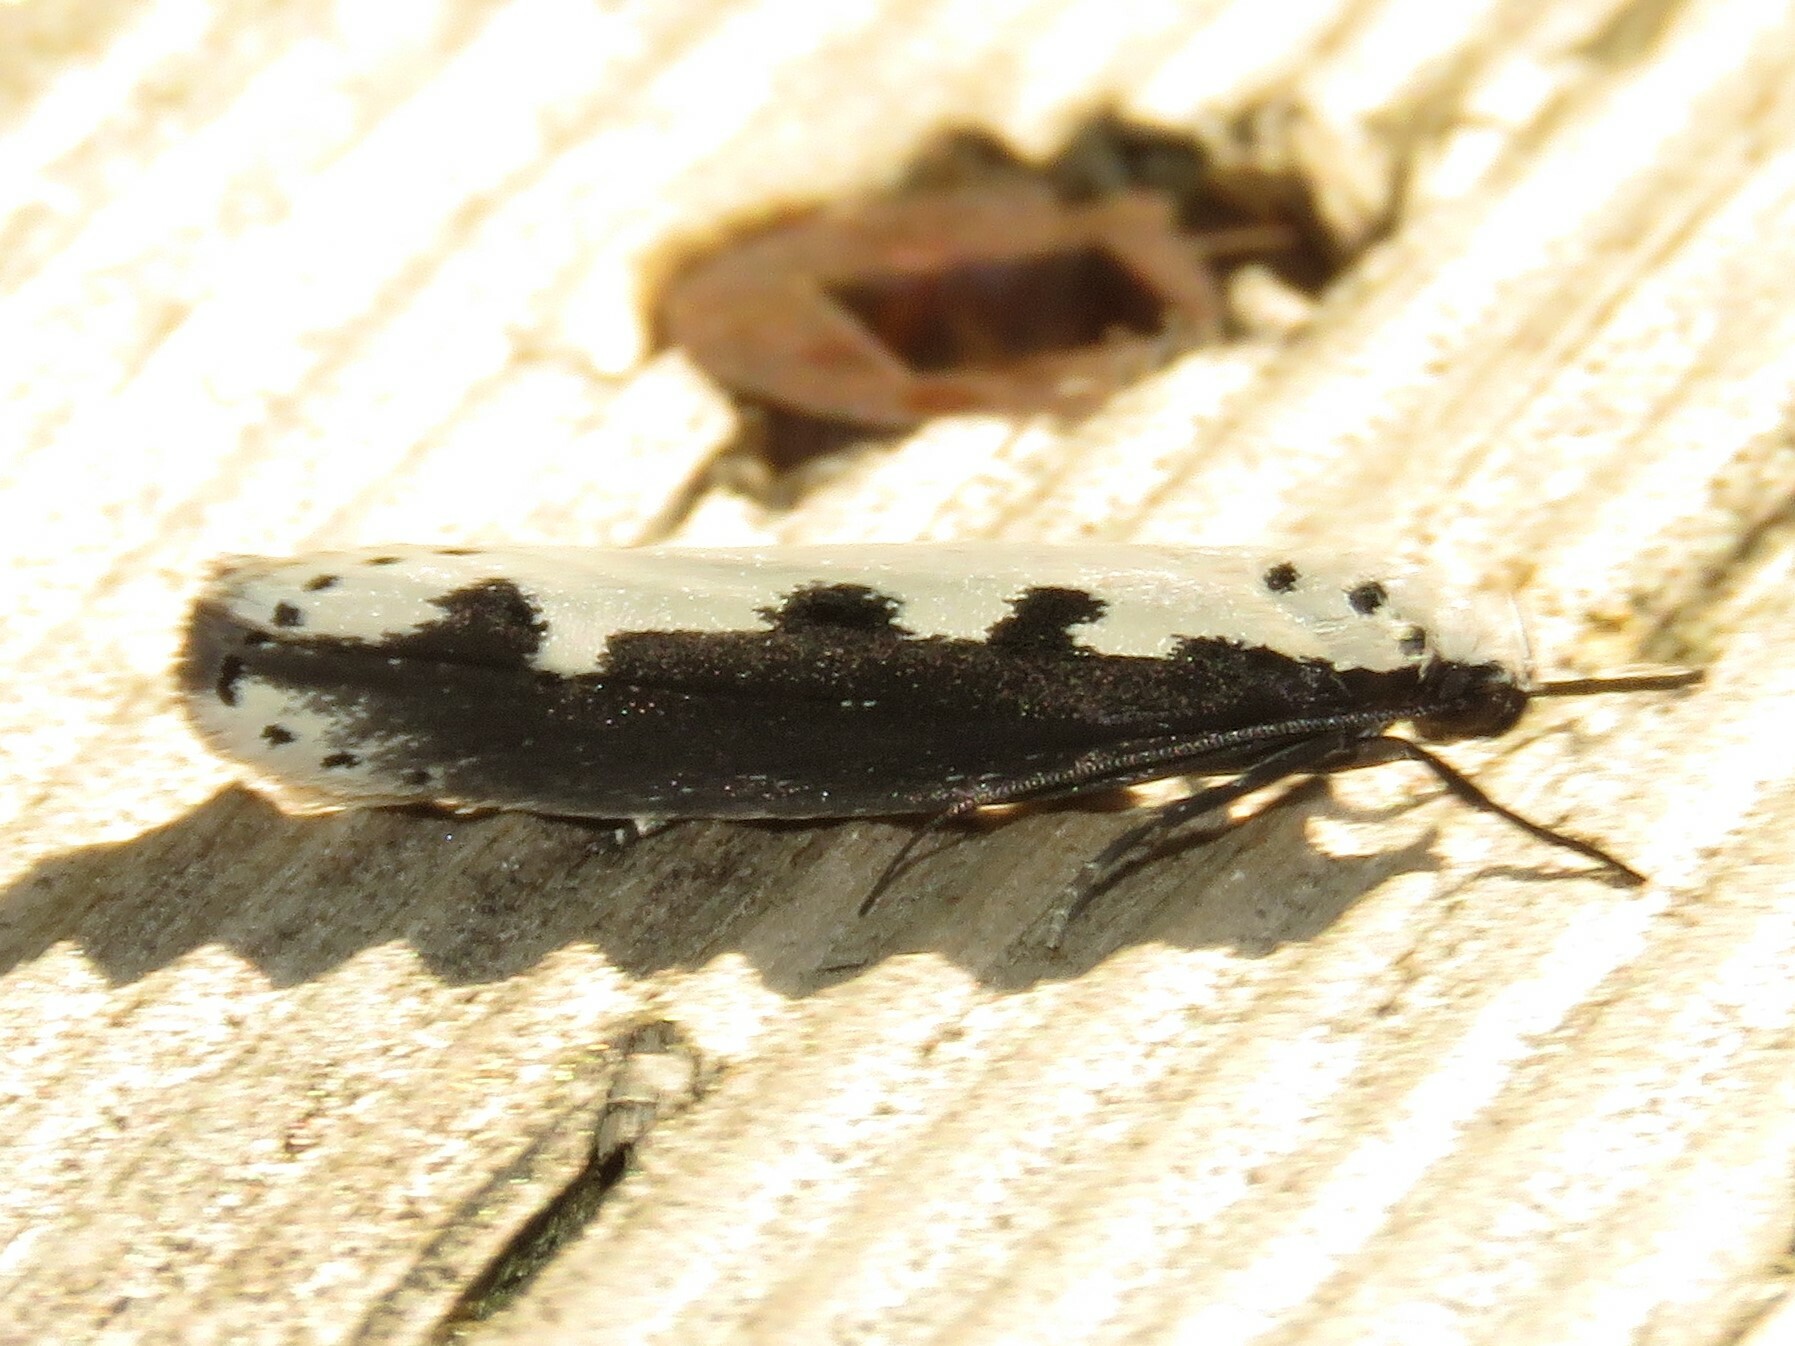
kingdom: Animalia
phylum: Arthropoda
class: Insecta
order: Lepidoptera
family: Ethmiidae
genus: Ethmia
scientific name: Ethmia bipunctella
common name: Bordered ermel
